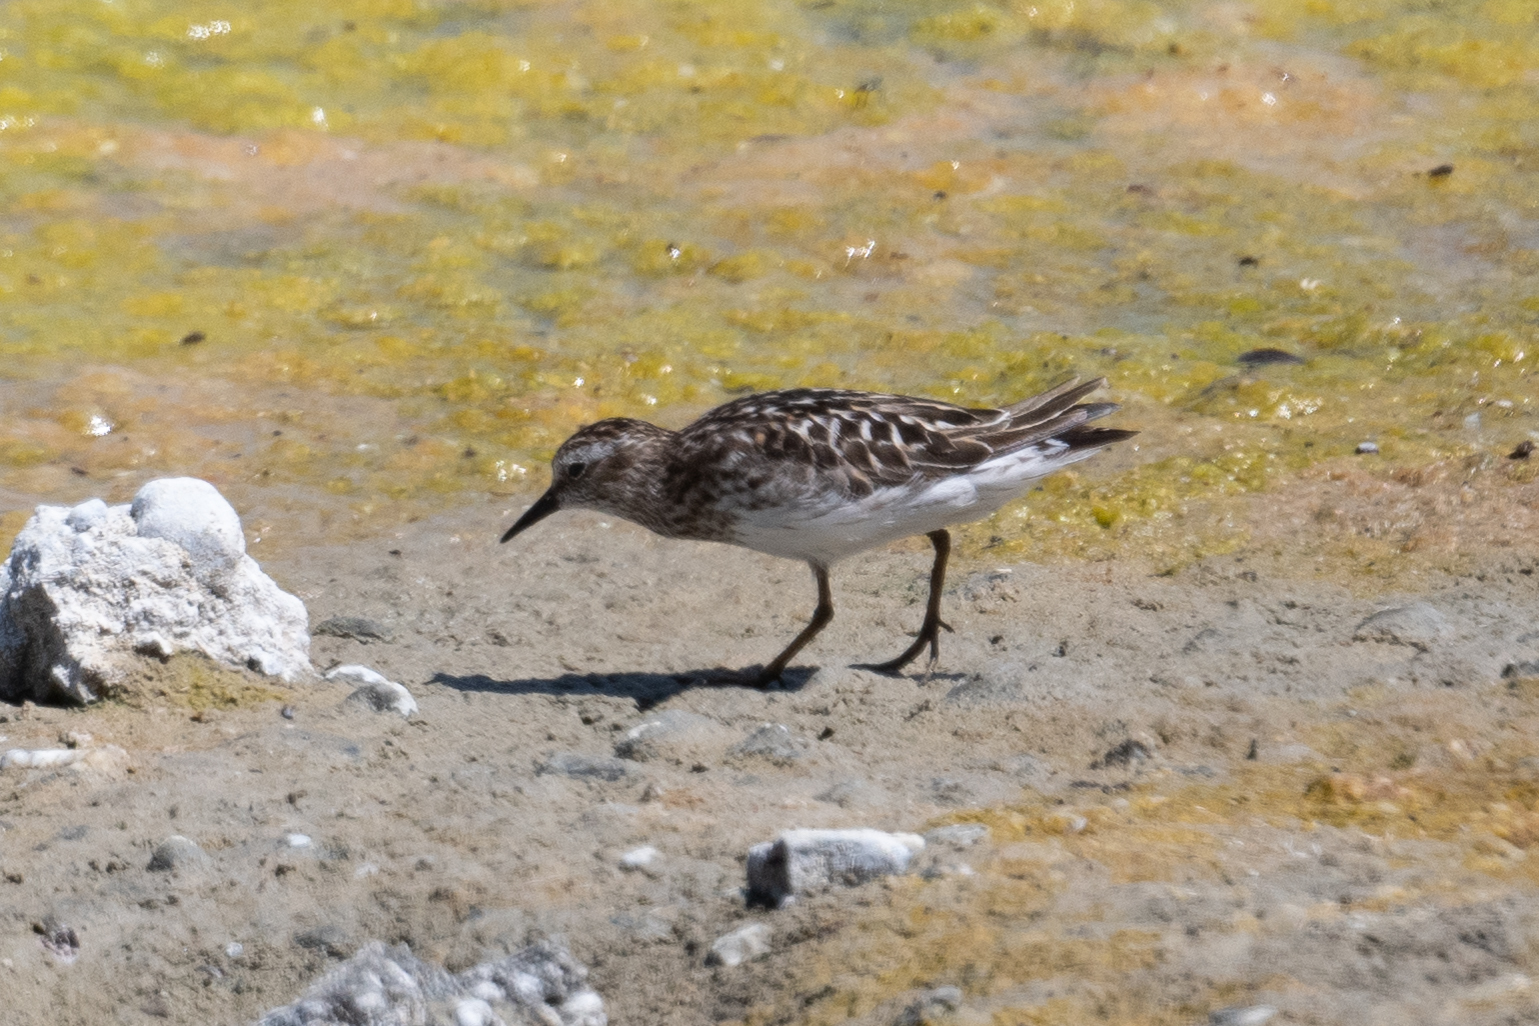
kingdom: Animalia
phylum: Chordata
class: Aves
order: Charadriiformes
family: Scolopacidae
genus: Calidris
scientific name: Calidris minutilla
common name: Least sandpiper
